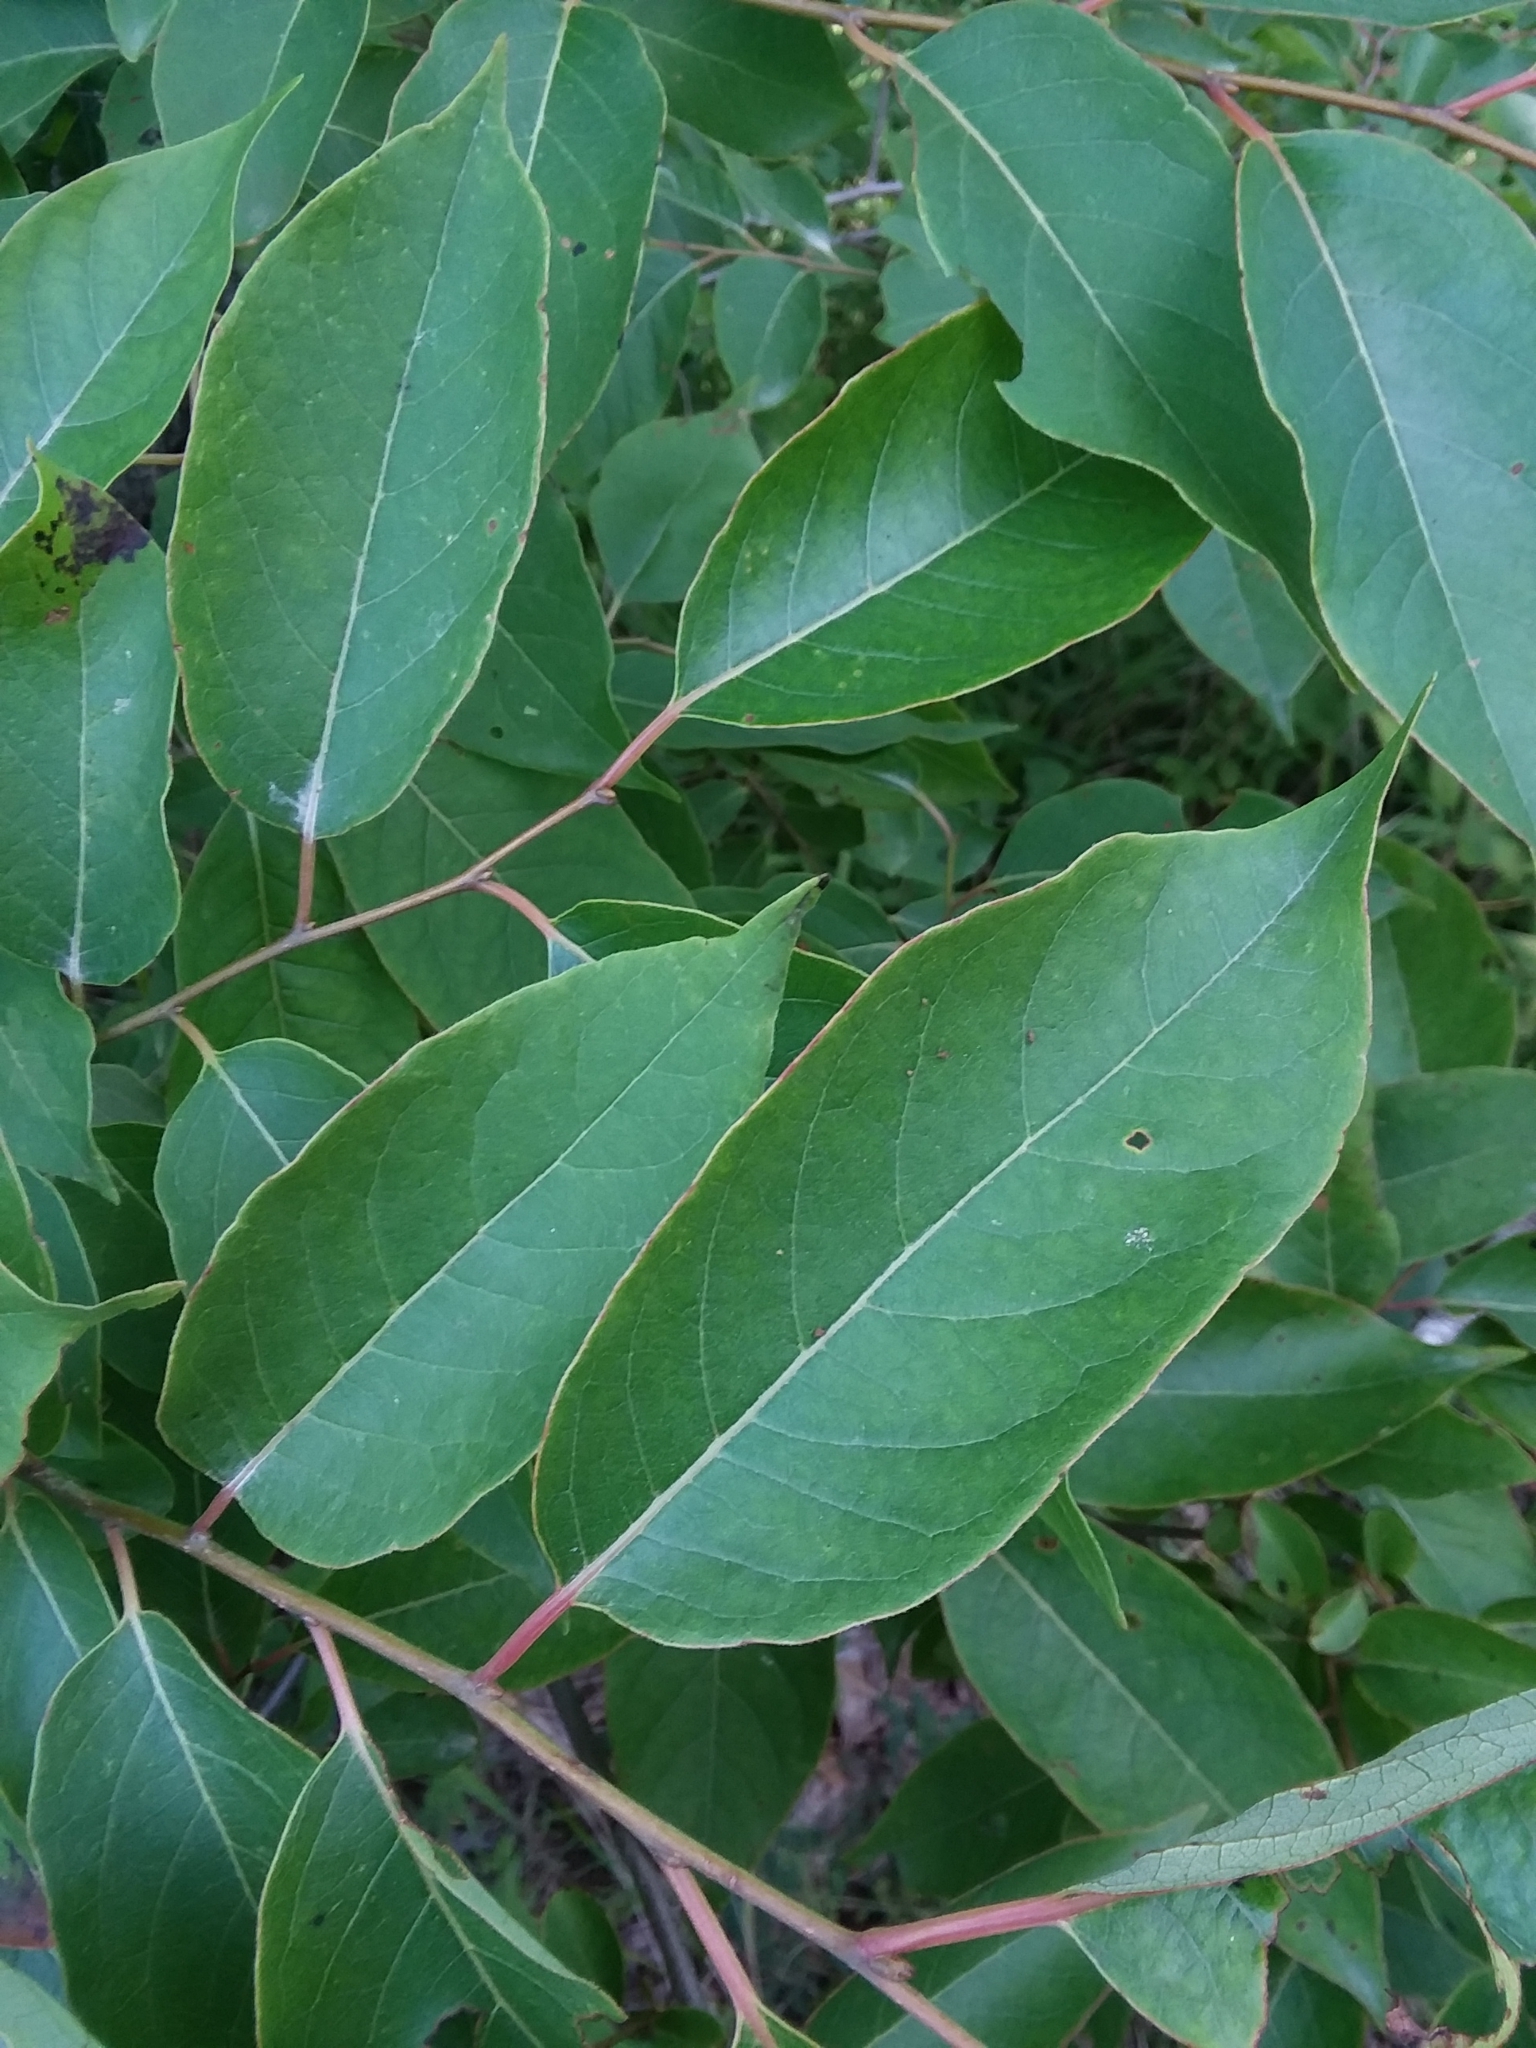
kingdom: Plantae
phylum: Tracheophyta
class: Magnoliopsida
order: Ericales
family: Ebenaceae
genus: Diospyros
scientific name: Diospyros virginiana
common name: Persimmon
